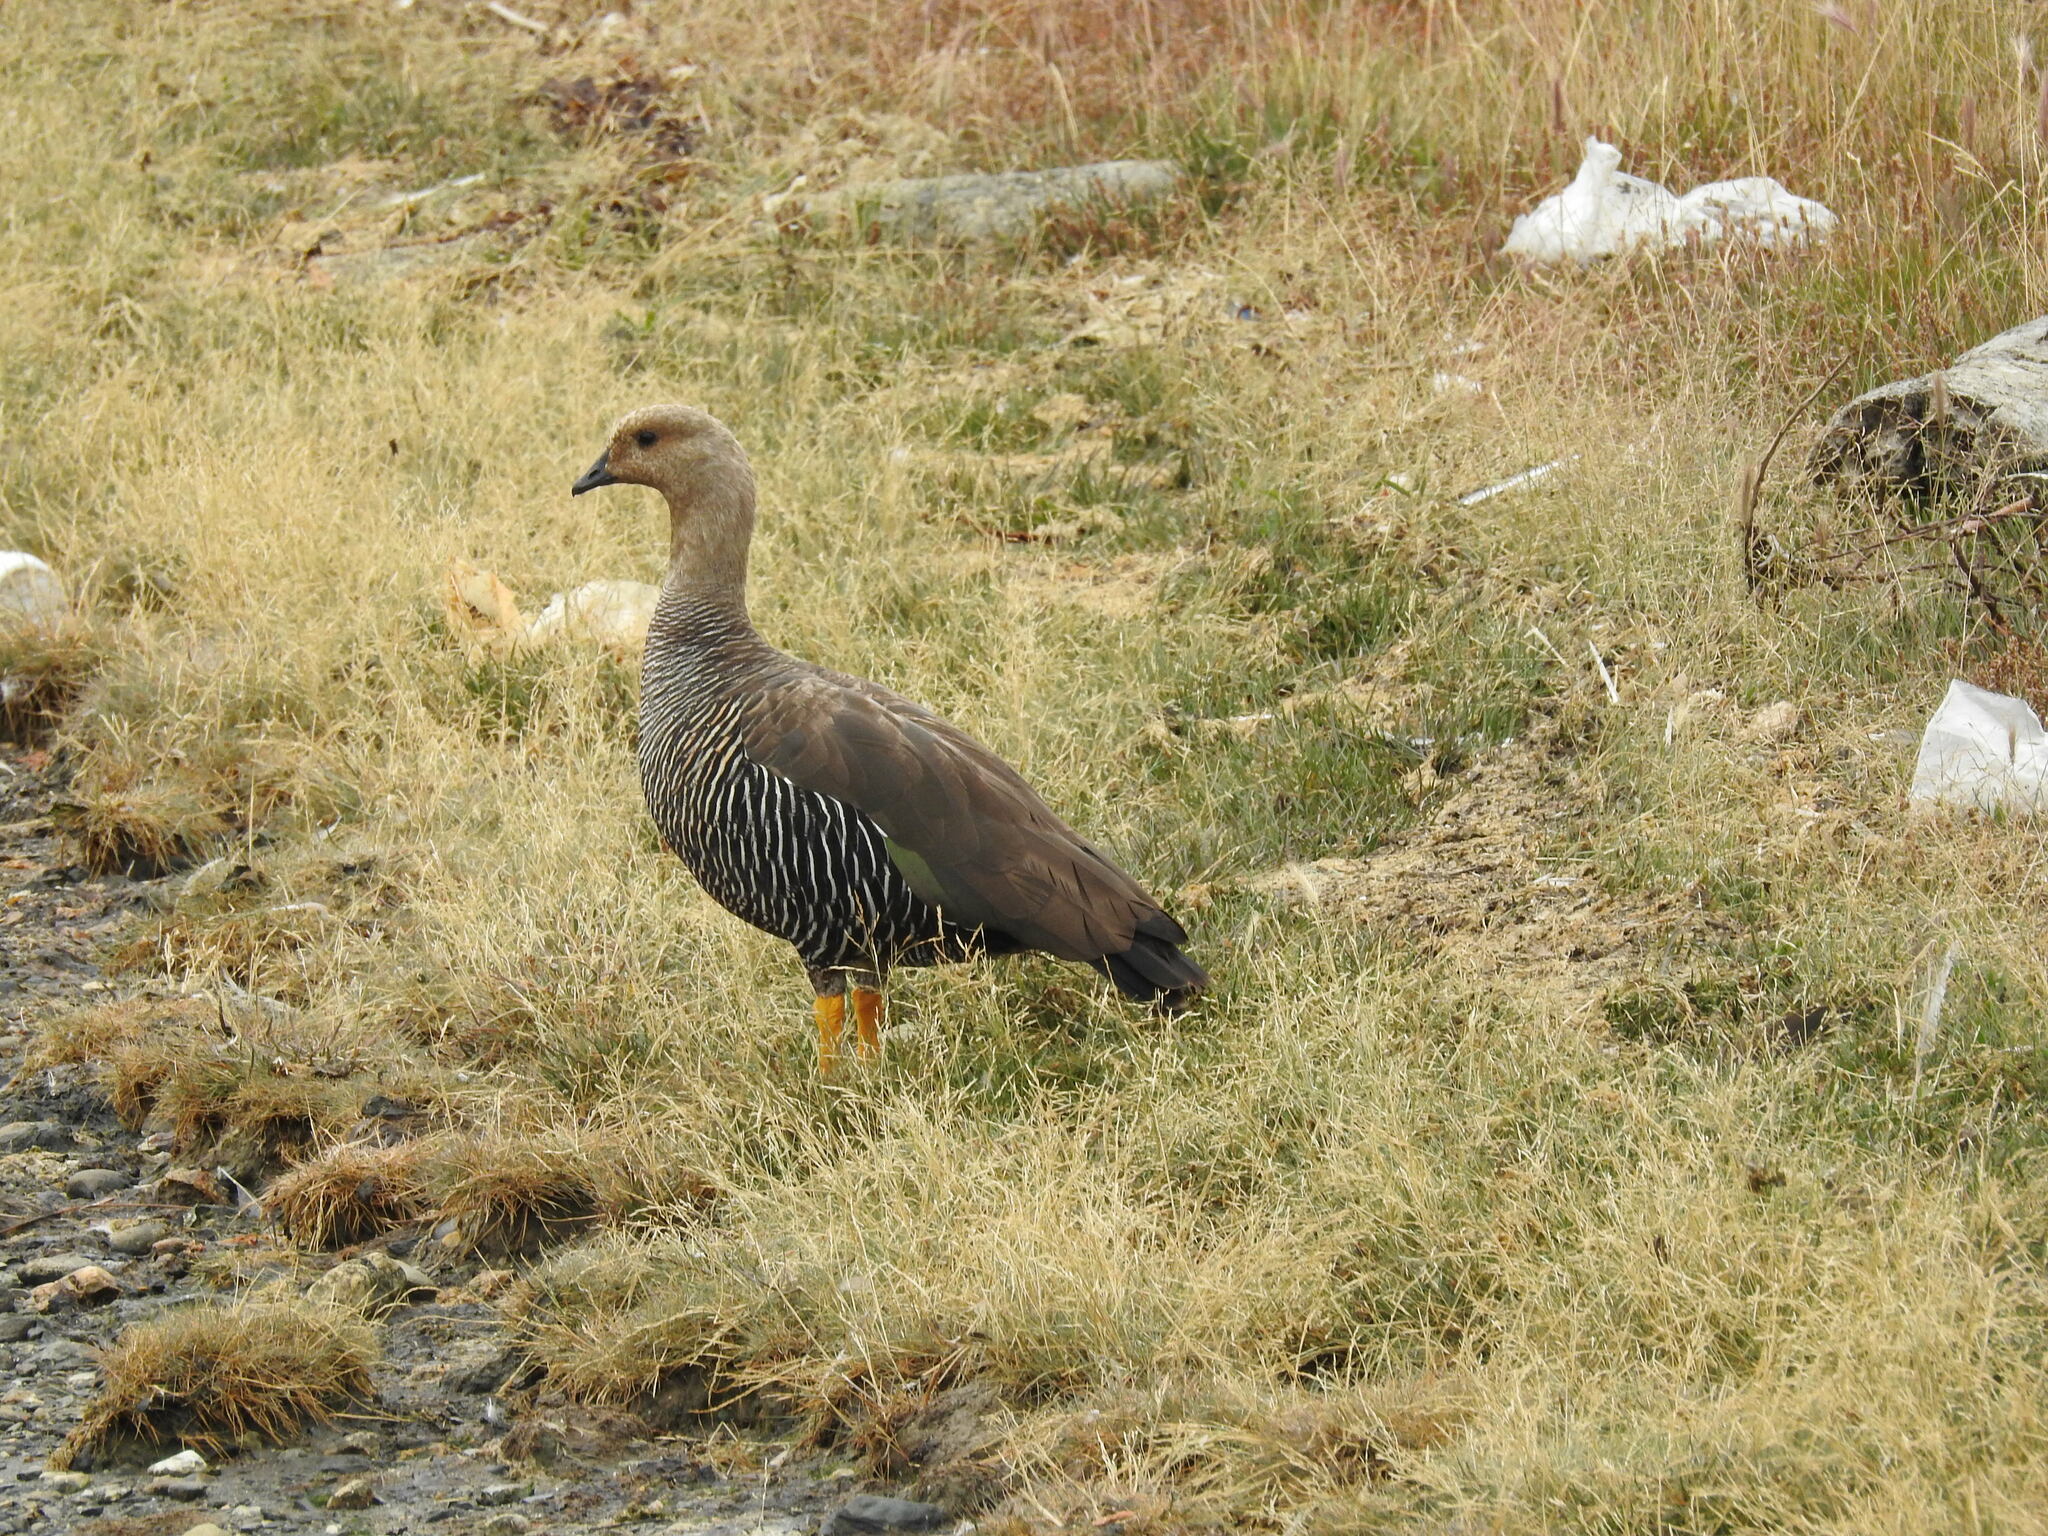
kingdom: Animalia
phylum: Chordata
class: Aves
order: Anseriformes
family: Anatidae
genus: Chloephaga
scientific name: Chloephaga picta
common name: Upland goose
